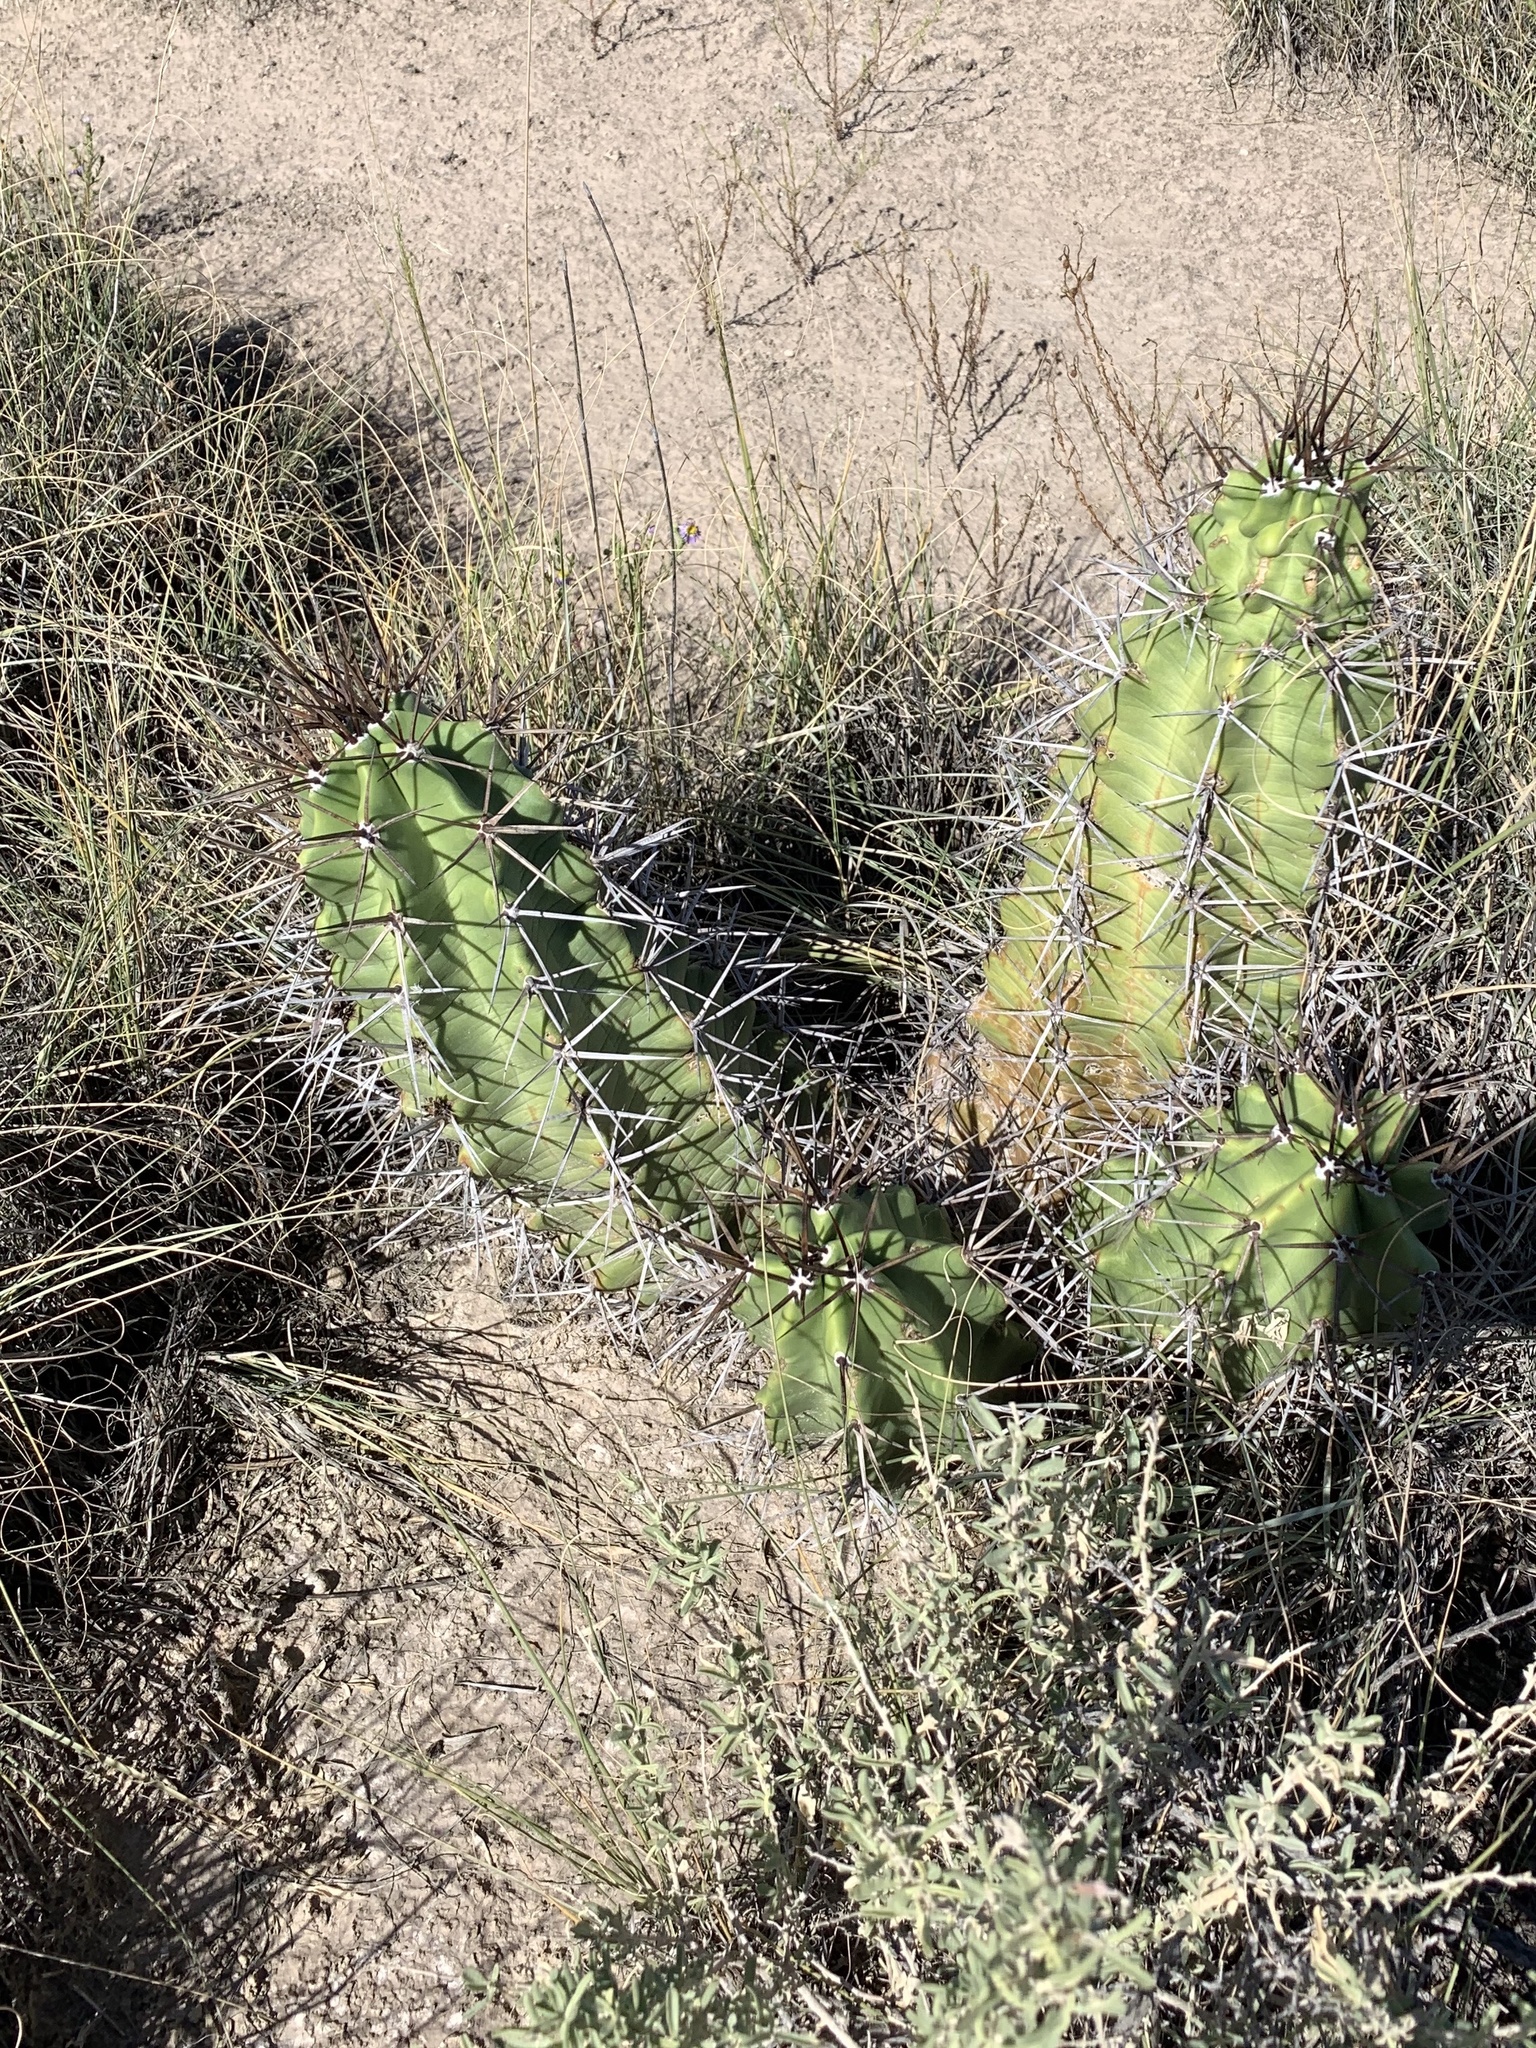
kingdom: Plantae
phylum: Tracheophyta
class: Magnoliopsida
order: Caryophyllales
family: Cactaceae
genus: Echinocereus
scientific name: Echinocereus triglochidiatus
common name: Claretcup hedgehog
